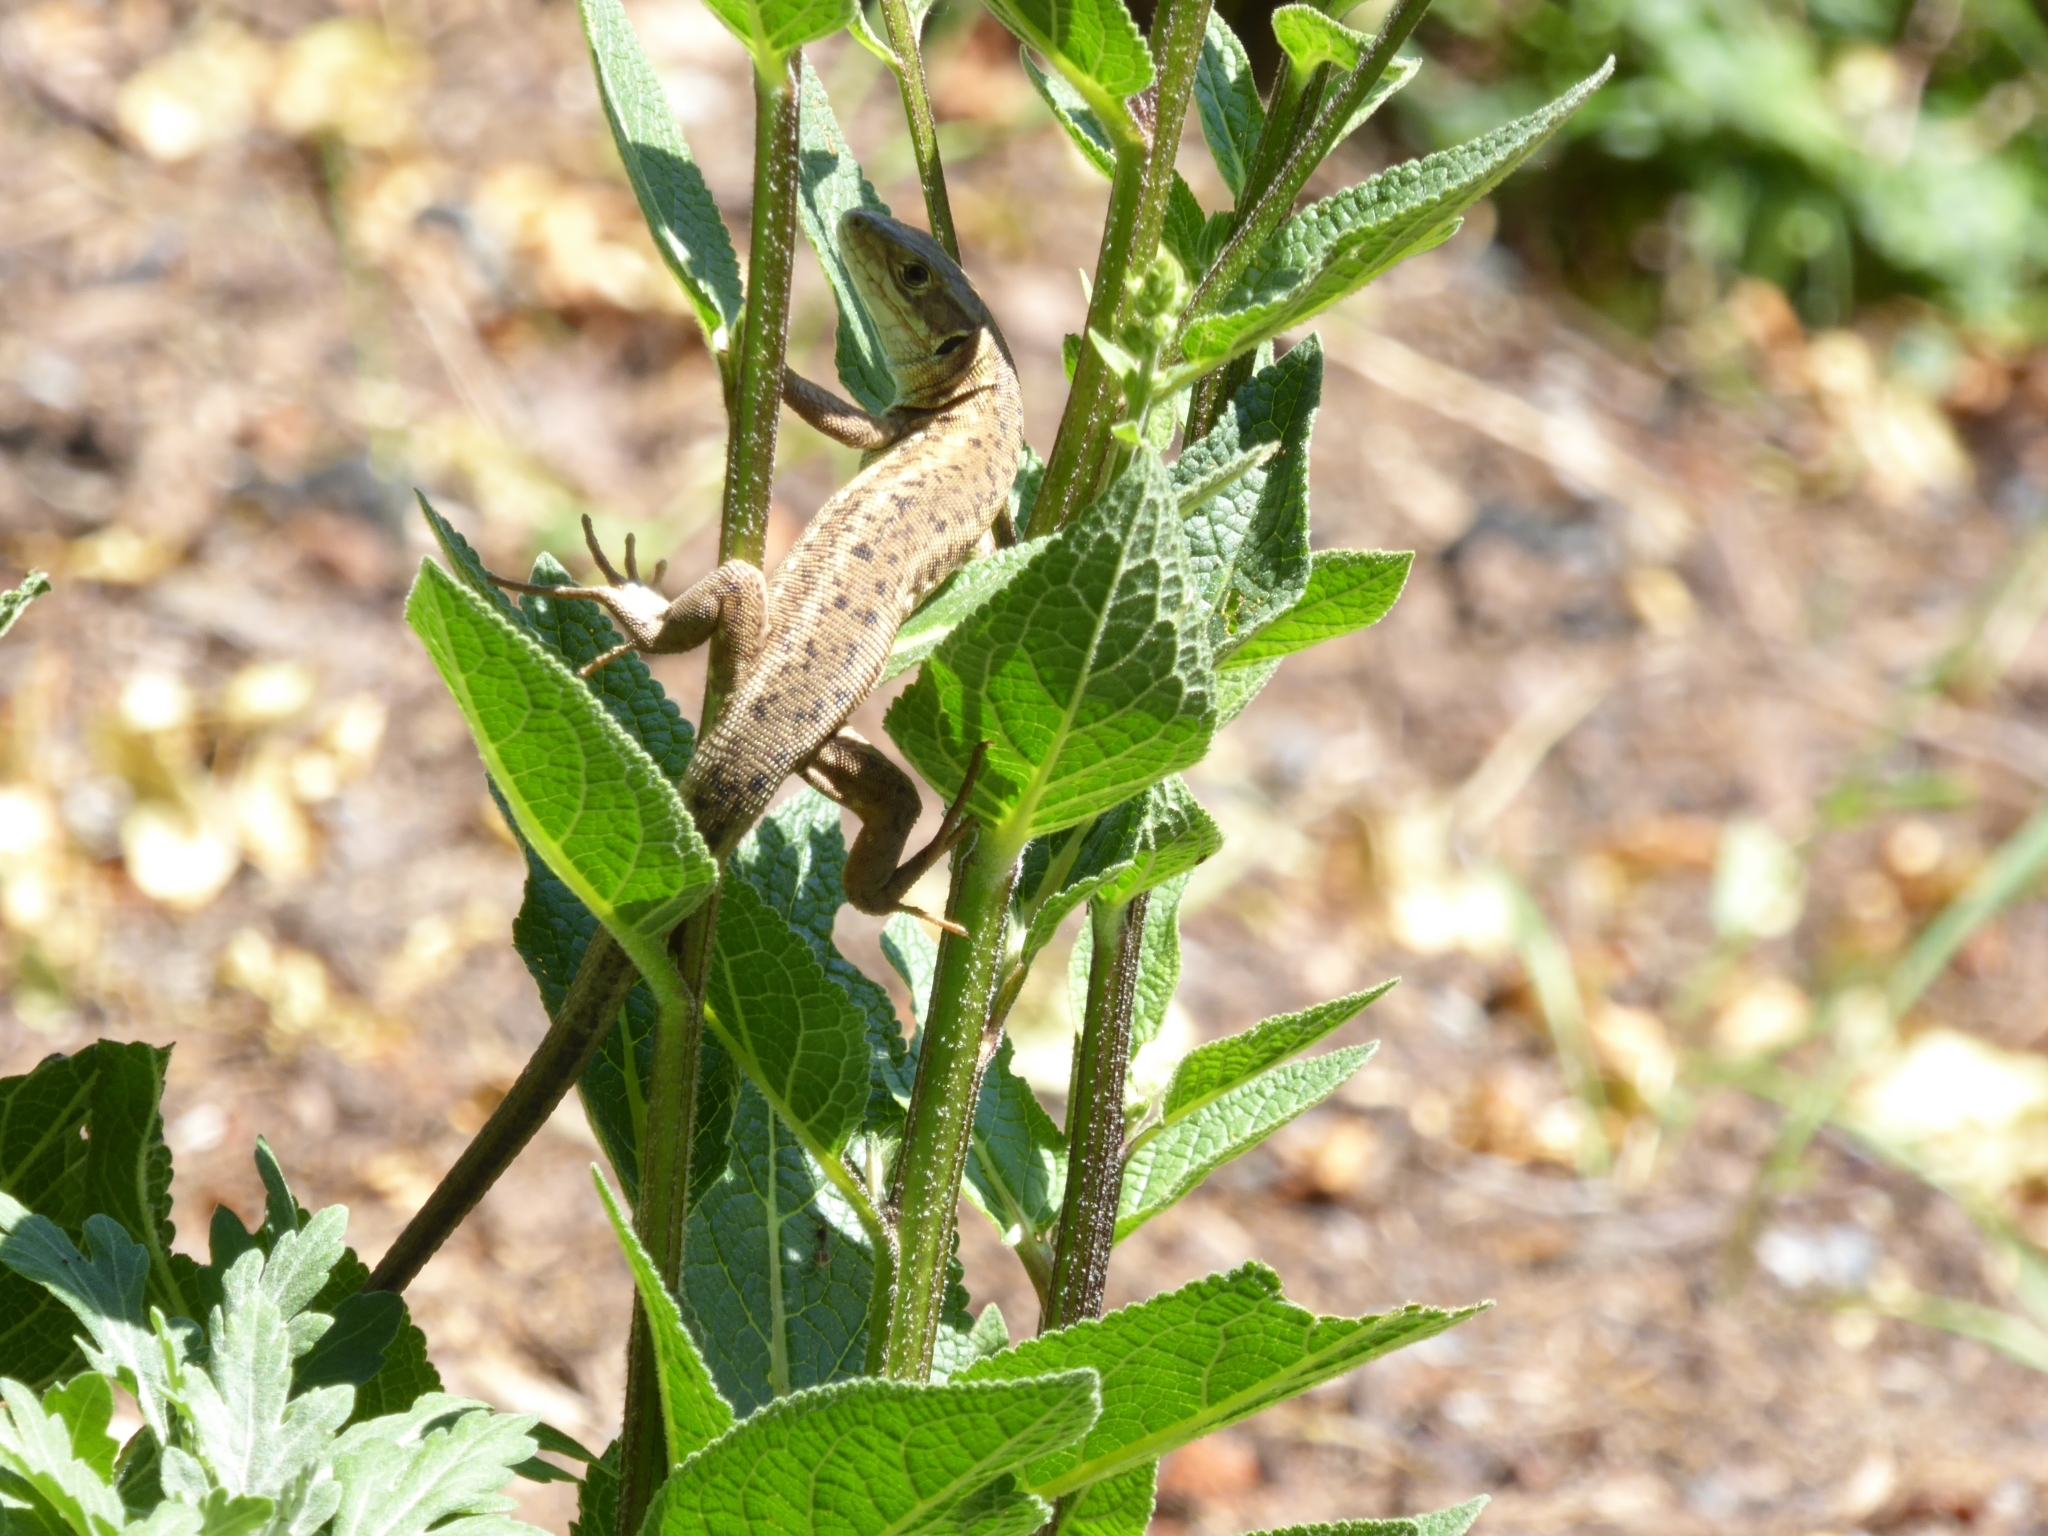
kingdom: Animalia
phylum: Chordata
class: Squamata
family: Lacertidae
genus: Lacerta
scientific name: Lacerta viridis
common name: European green lizard
